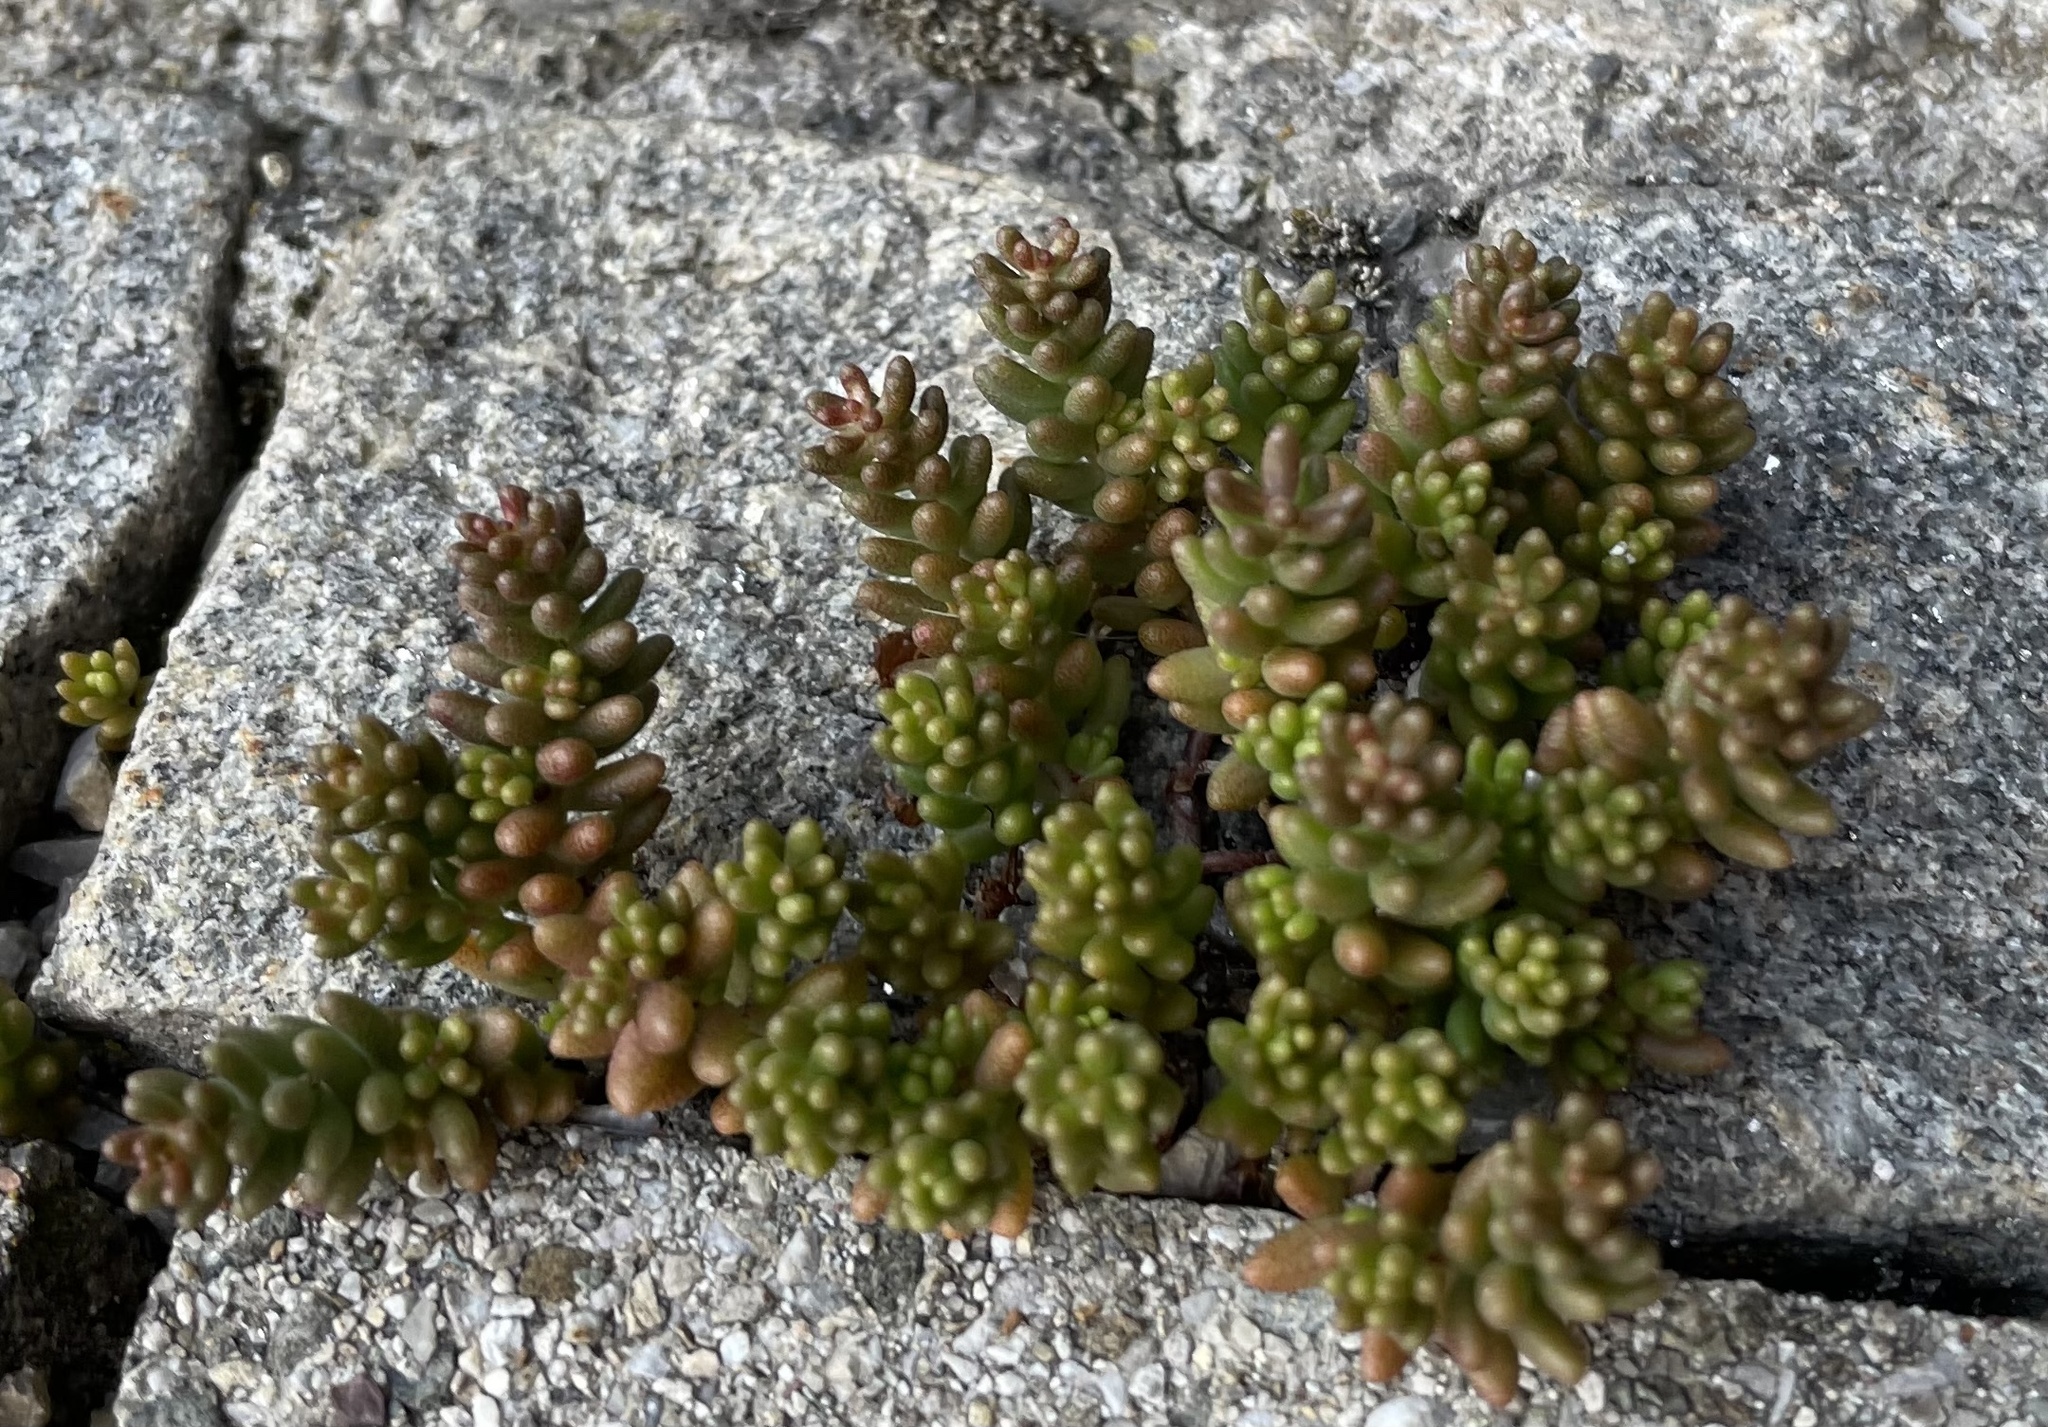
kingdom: Plantae
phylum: Tracheophyta
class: Magnoliopsida
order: Saxifragales
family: Crassulaceae
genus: Sedum
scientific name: Sedum album
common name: White stonecrop
